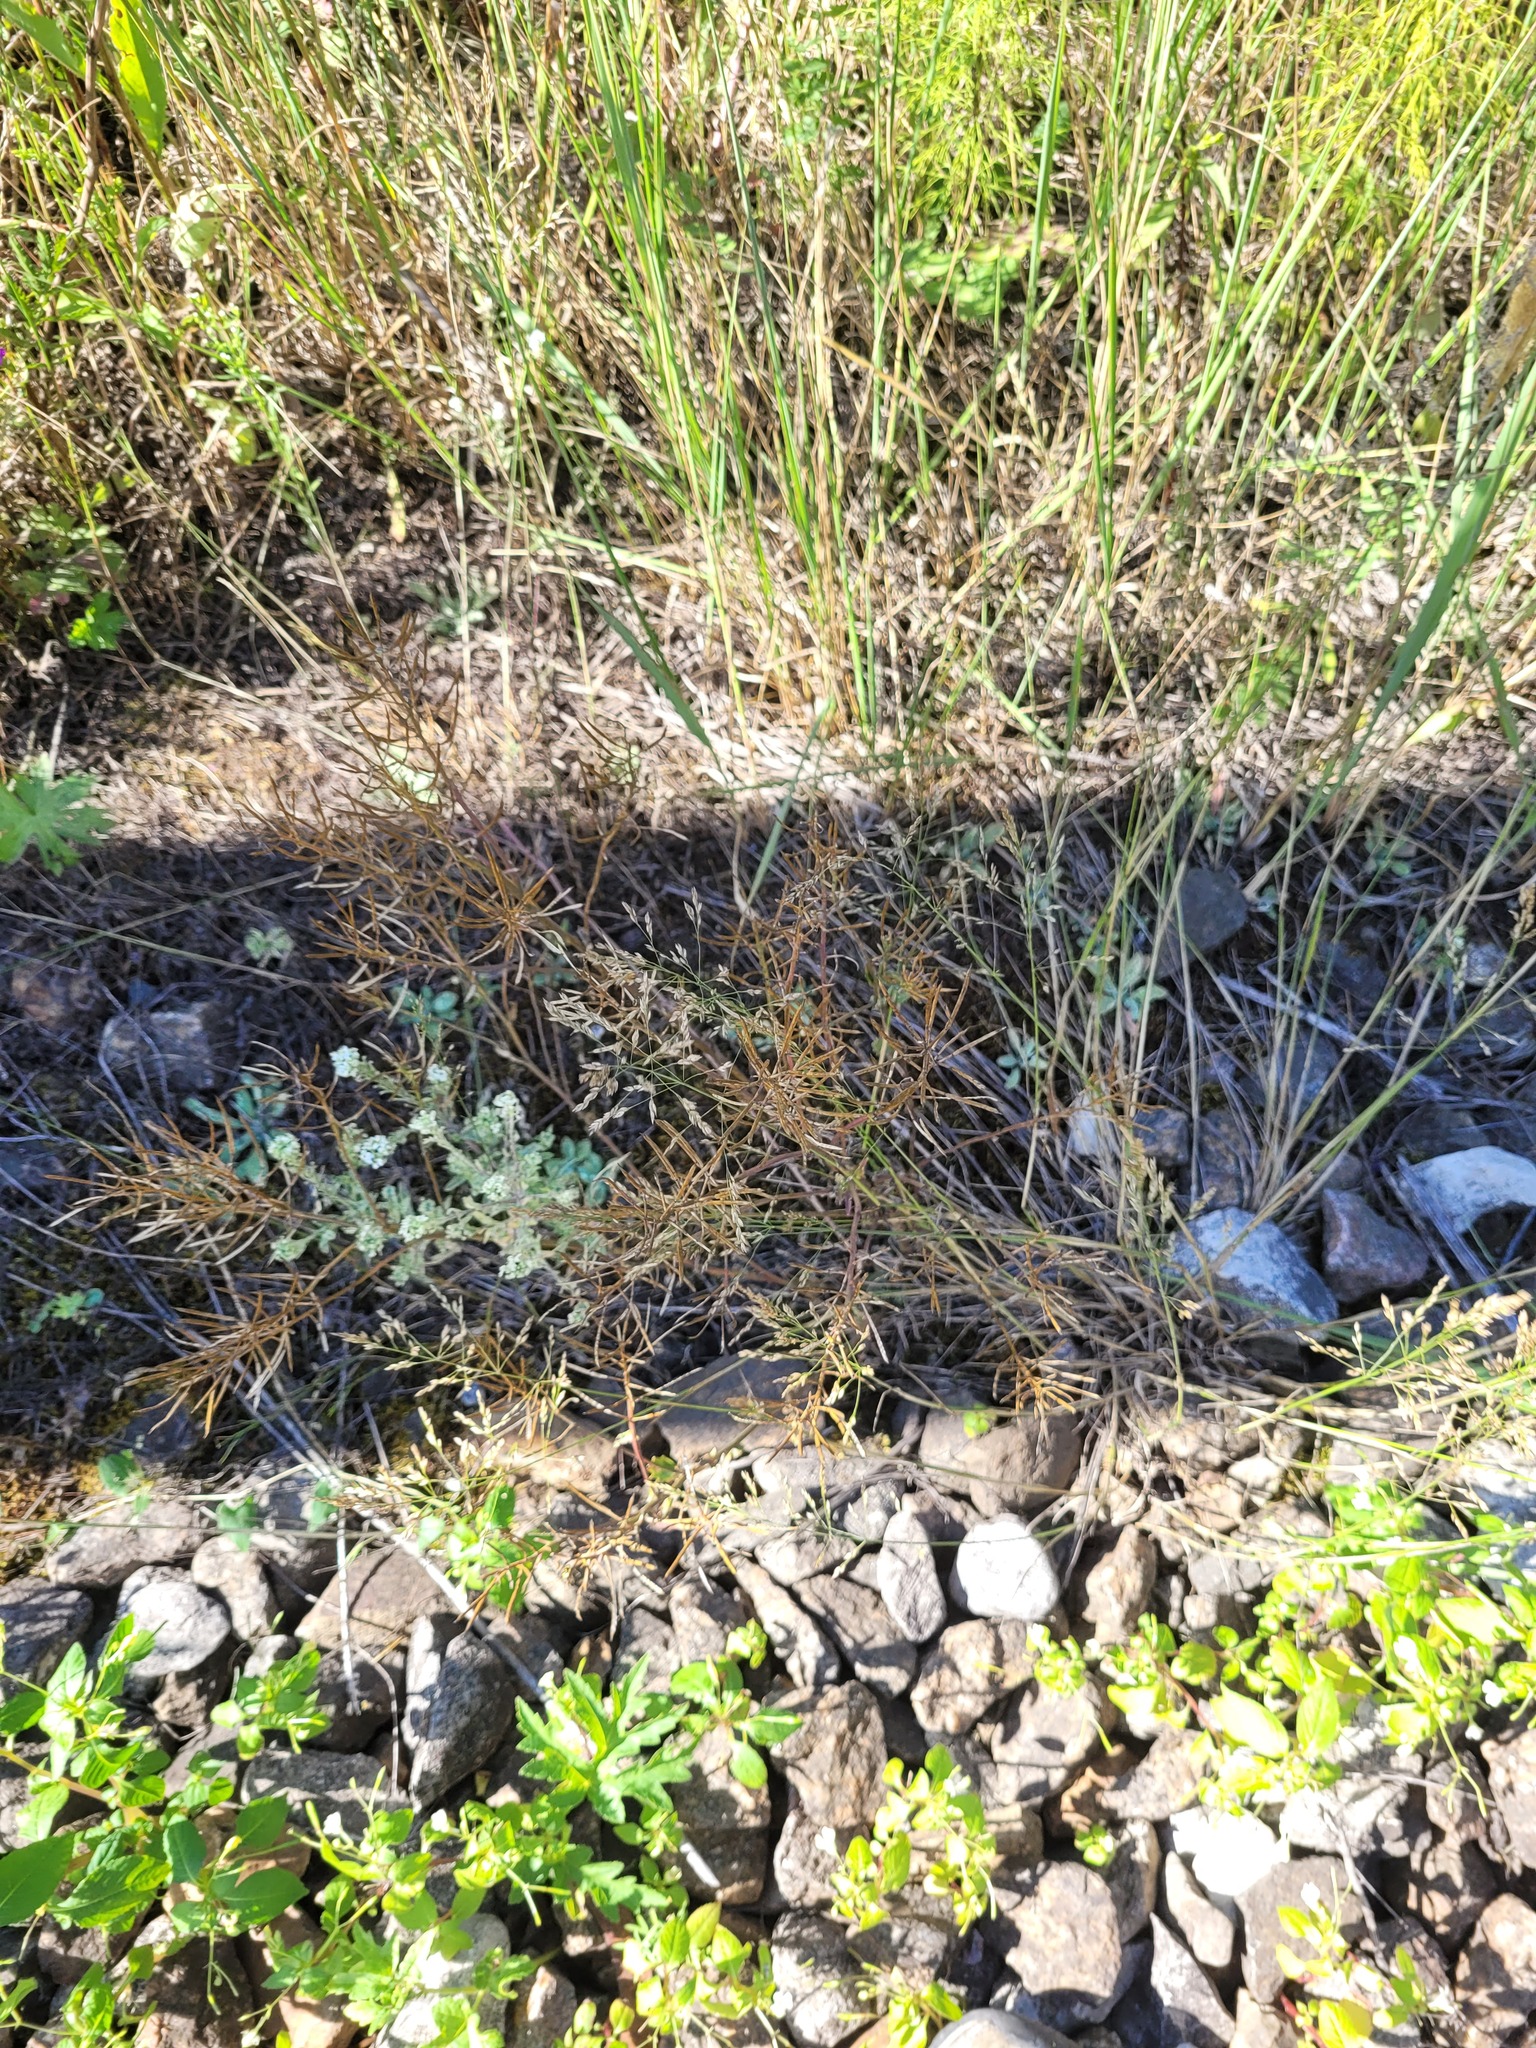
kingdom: Plantae
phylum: Tracheophyta
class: Magnoliopsida
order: Brassicales
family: Brassicaceae
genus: Barbarea
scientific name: Barbarea vulgaris
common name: Cressy-greens
